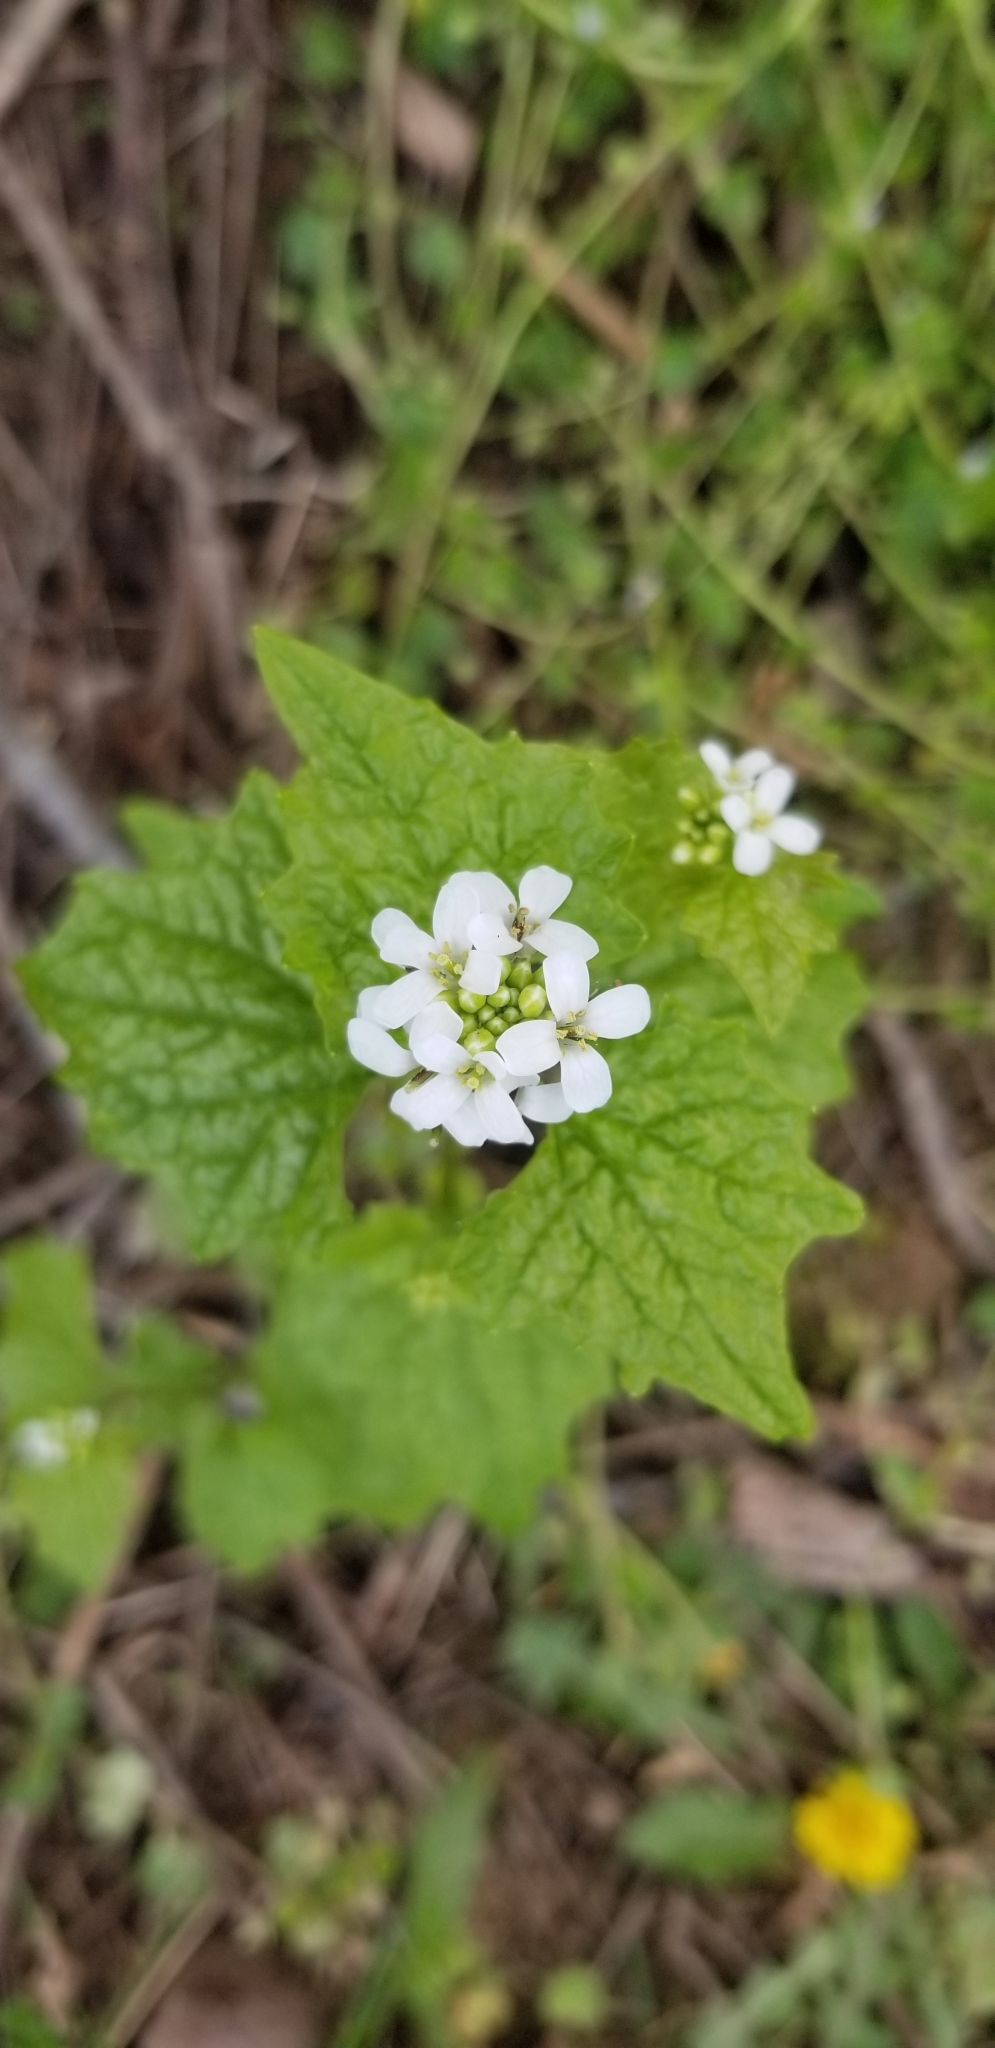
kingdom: Plantae
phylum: Tracheophyta
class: Magnoliopsida
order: Brassicales
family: Brassicaceae
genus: Alliaria
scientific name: Alliaria petiolata
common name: Garlic mustard
